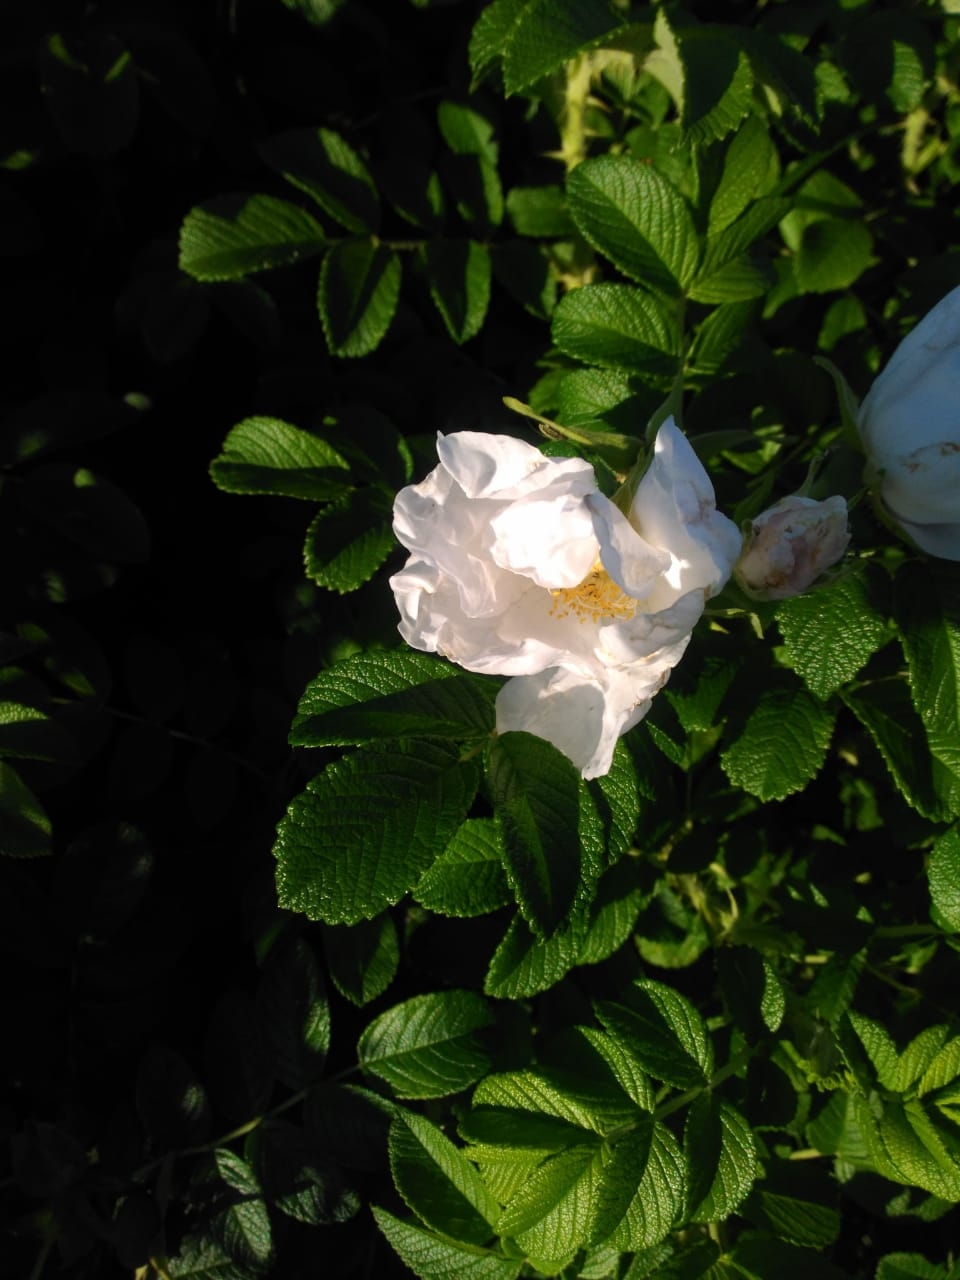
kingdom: Plantae
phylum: Tracheophyta
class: Magnoliopsida
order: Rosales
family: Rosaceae
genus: Rosa
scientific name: Rosa rugosa
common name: Japanese rose
